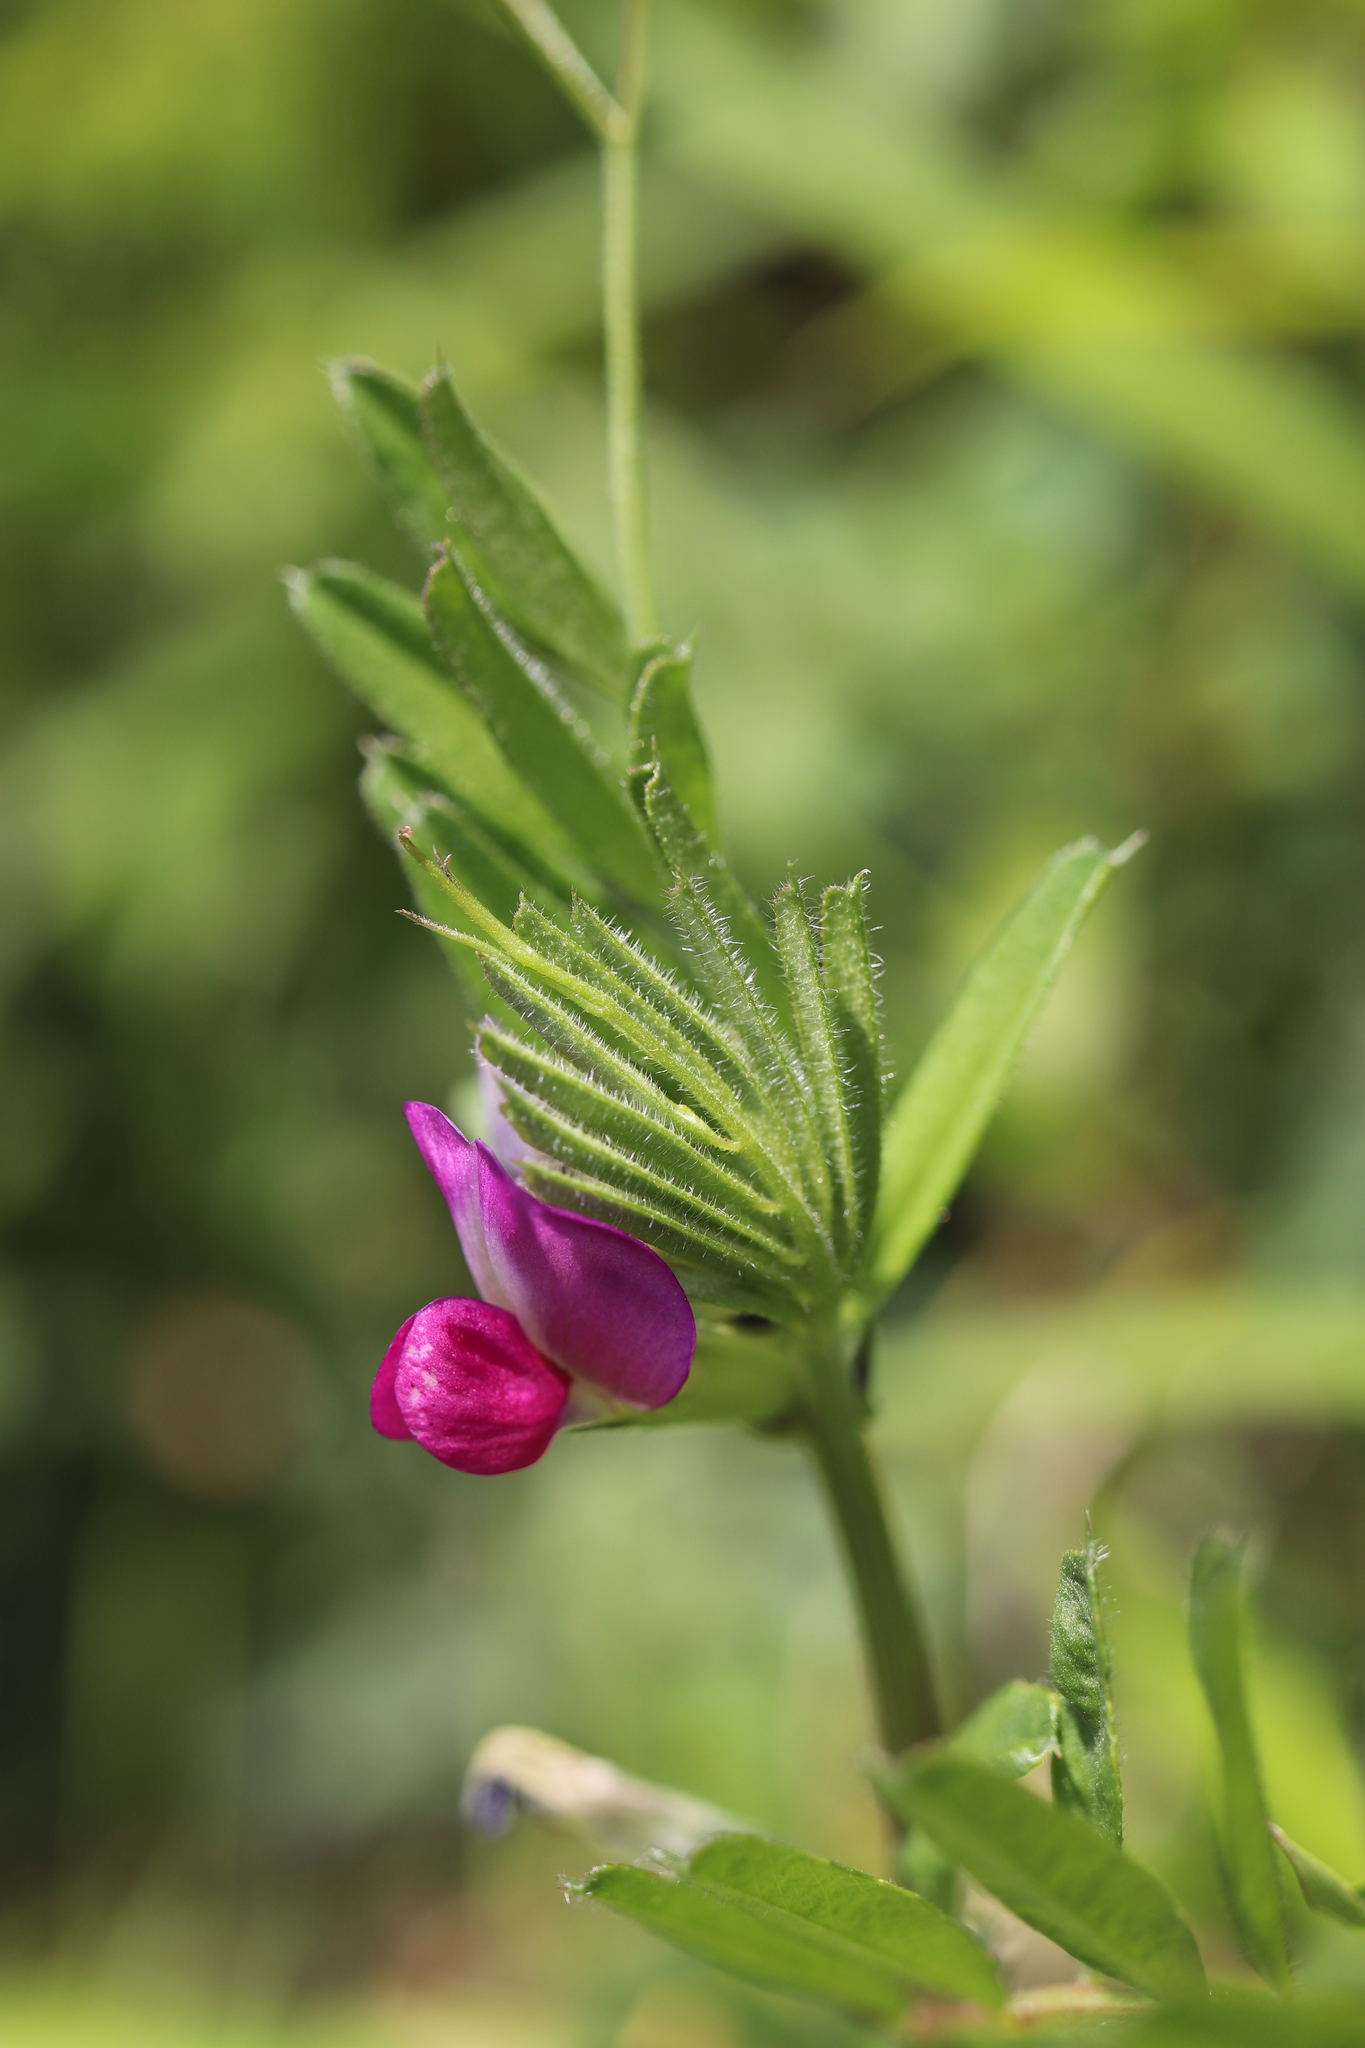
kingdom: Plantae
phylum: Tracheophyta
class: Magnoliopsida
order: Fabales
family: Fabaceae
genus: Vicia
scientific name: Vicia sativa
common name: Garden vetch
